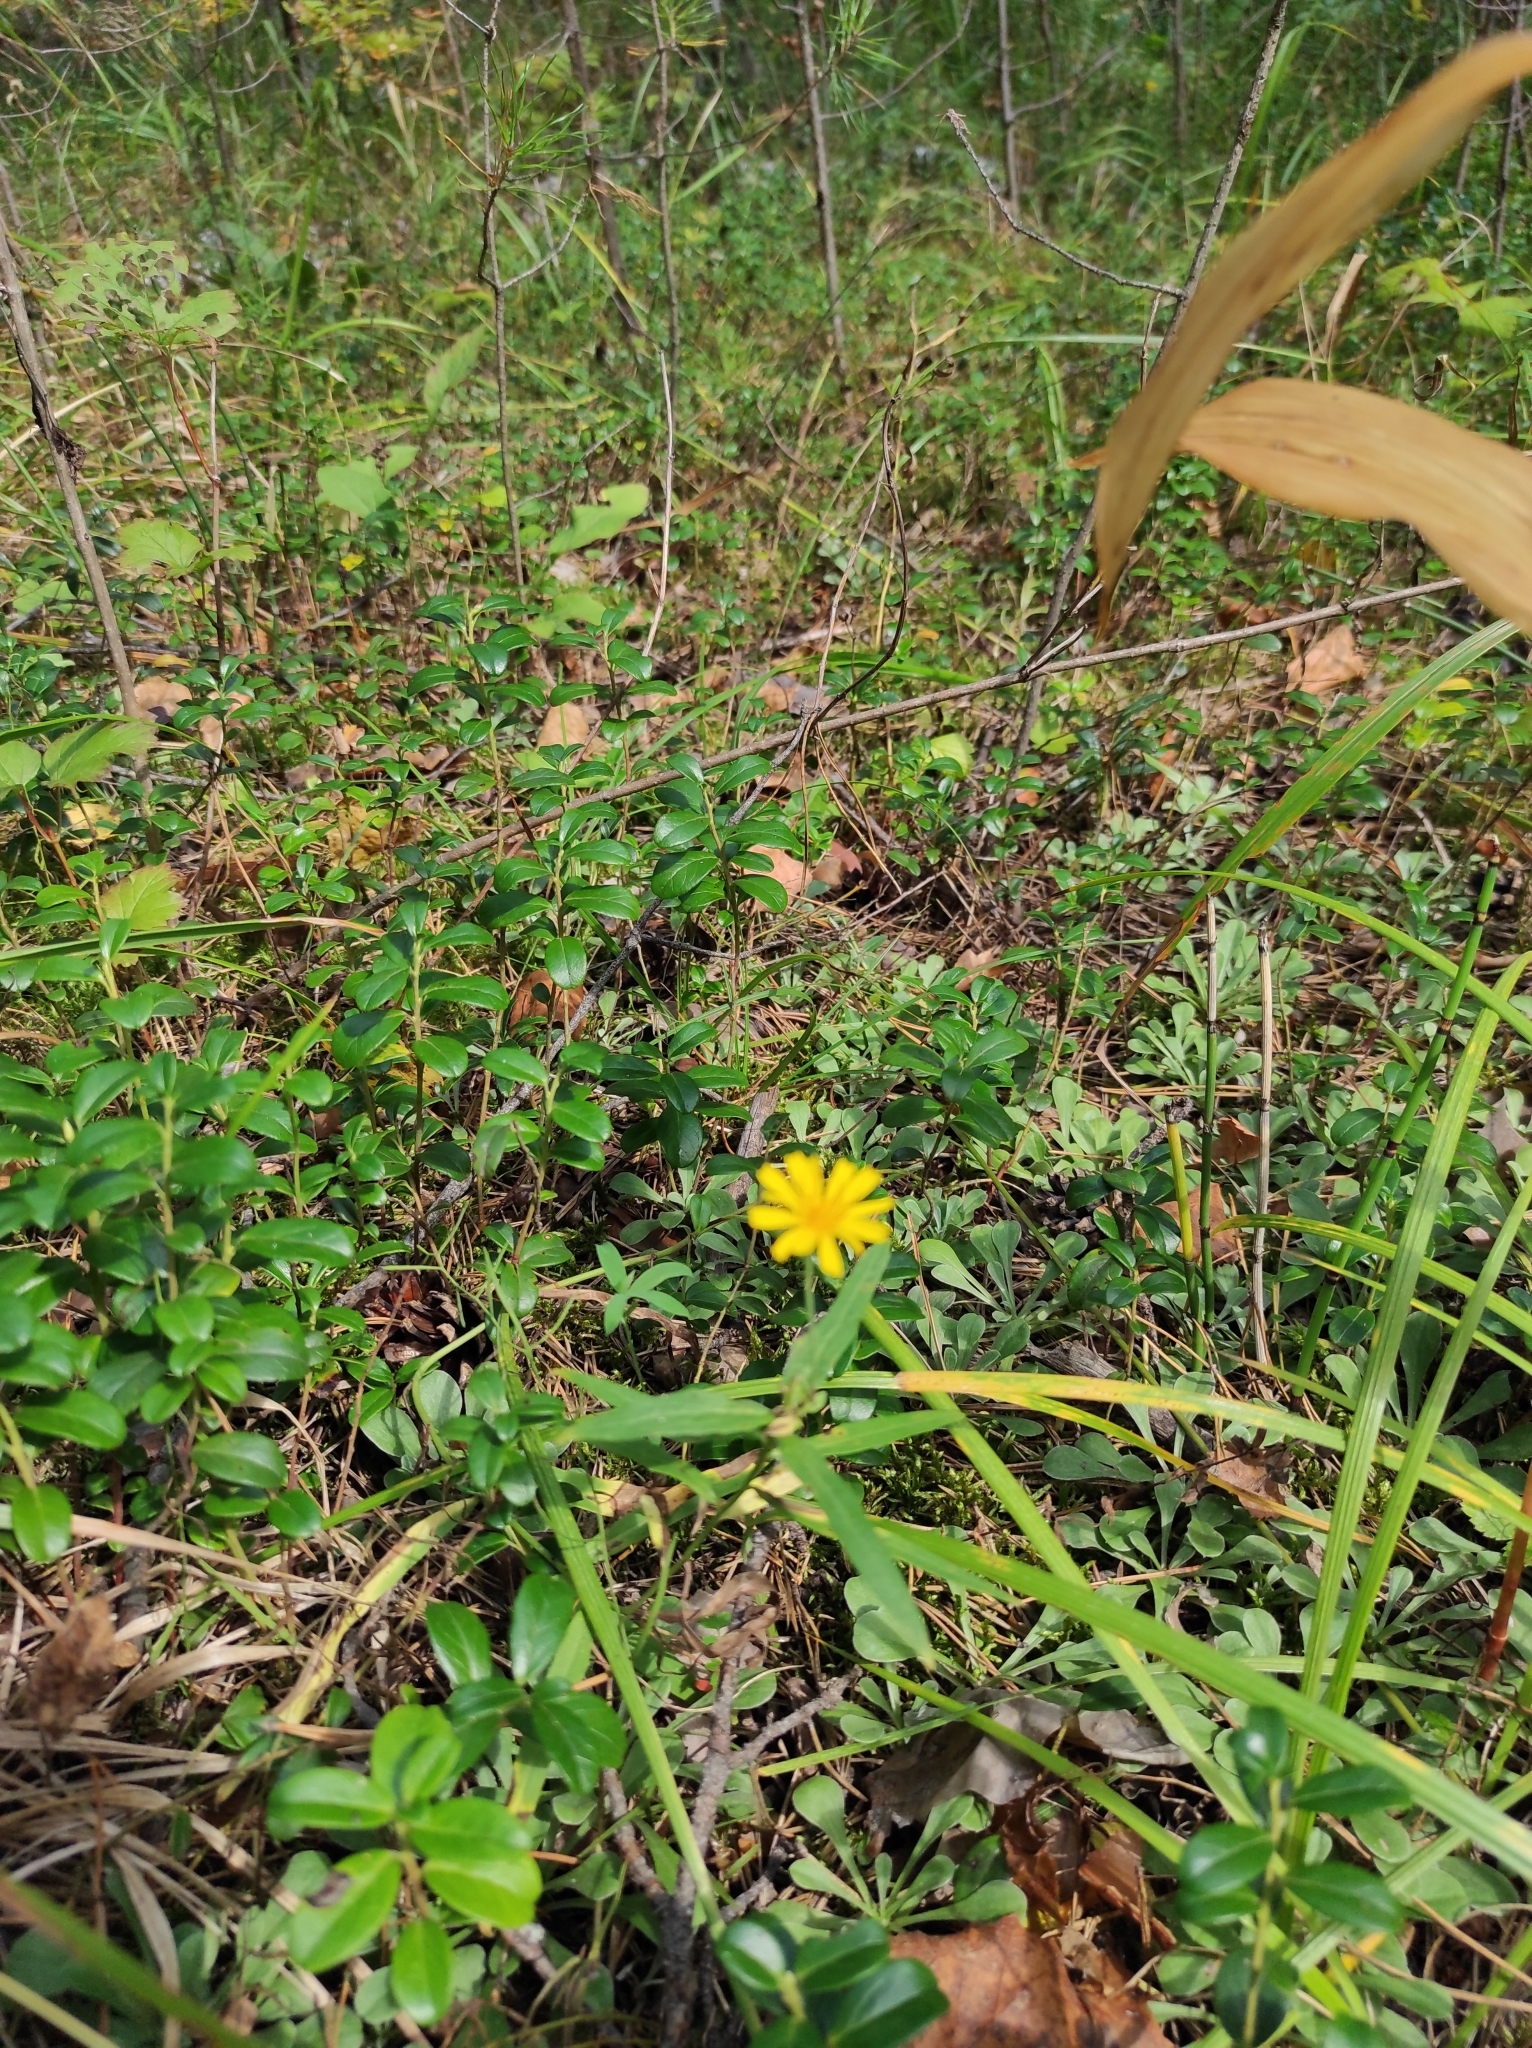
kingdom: Plantae
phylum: Tracheophyta
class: Magnoliopsida
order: Asterales
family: Asteraceae
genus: Hieracium
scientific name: Hieracium umbellatum
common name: Northern hawkweed
